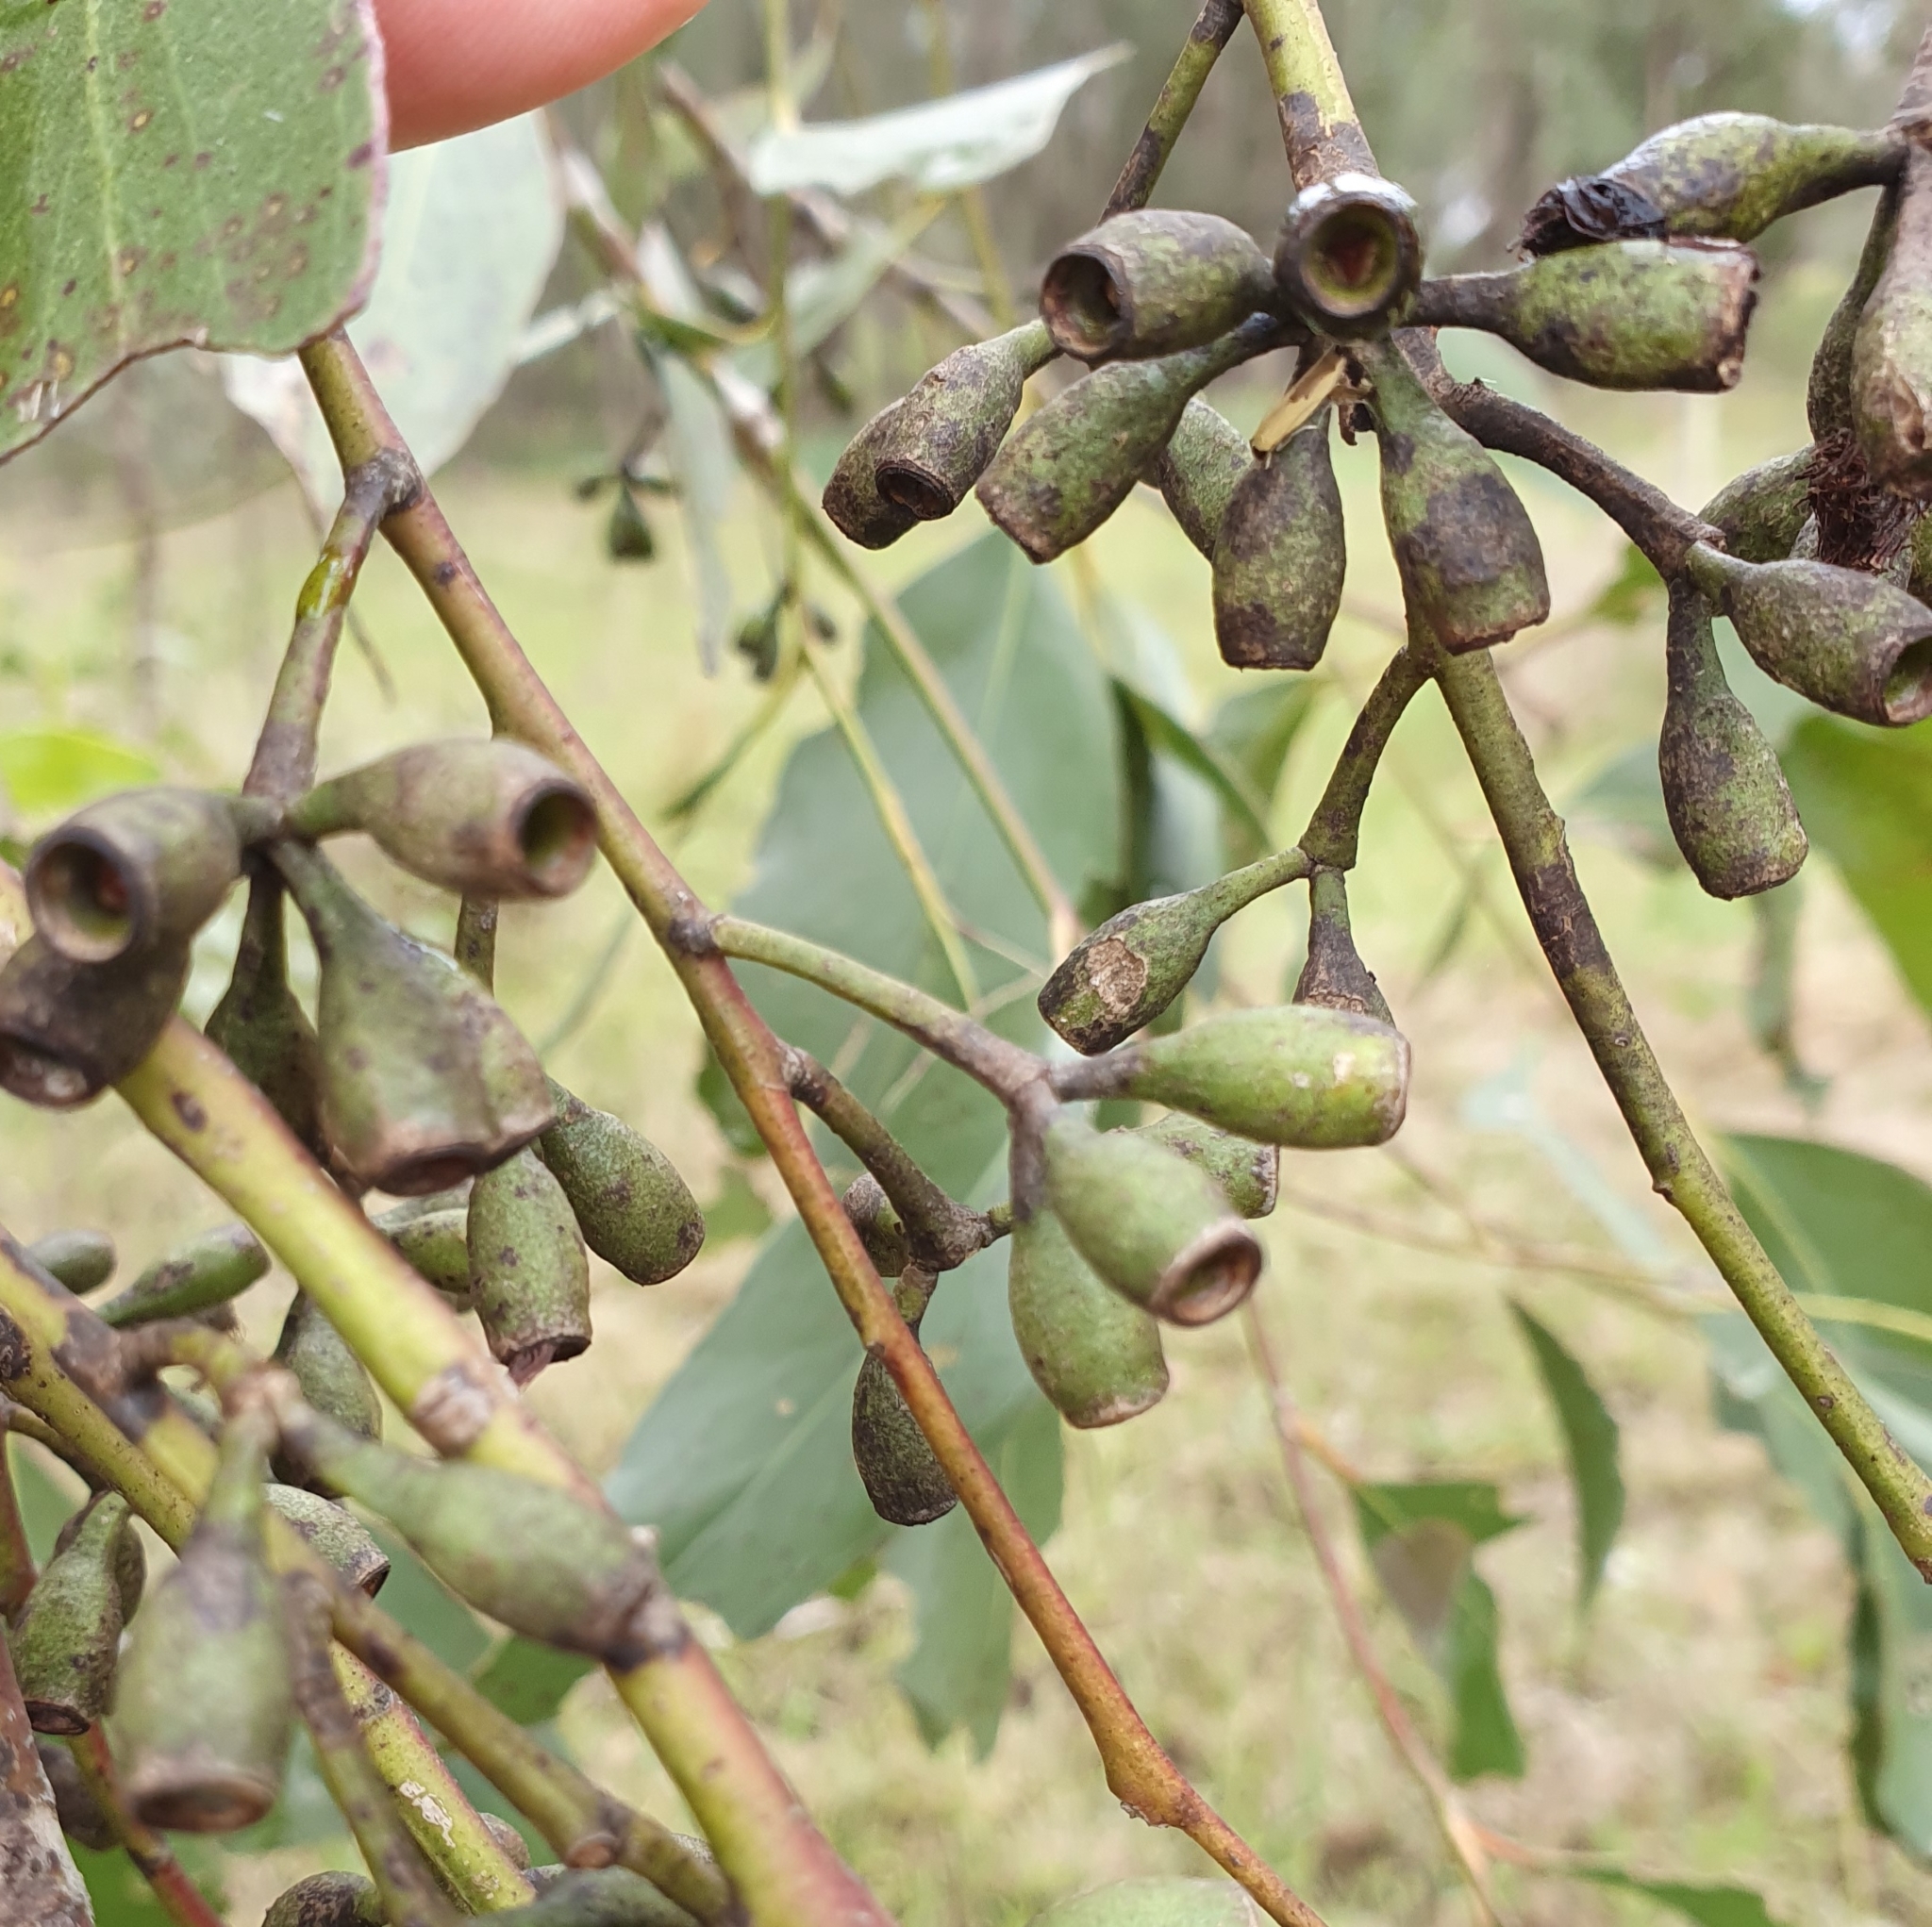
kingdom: Plantae
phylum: Tracheophyta
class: Magnoliopsida
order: Myrtales
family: Myrtaceae
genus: Eucalyptus
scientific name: Eucalyptus moluccana
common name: Grey-box
